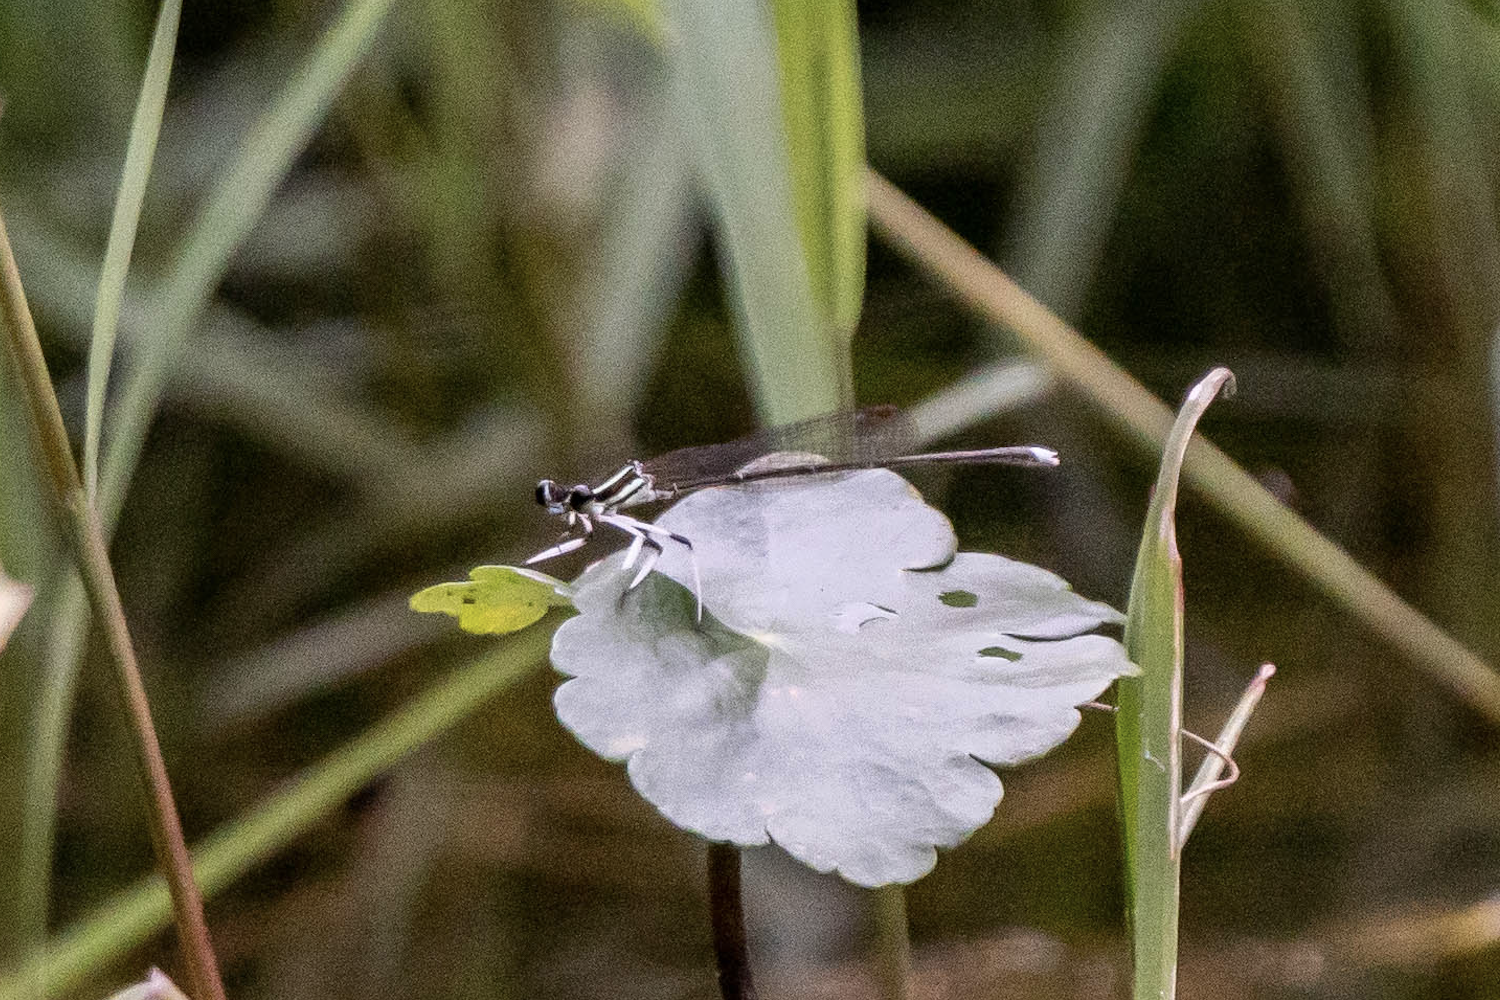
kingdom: Animalia
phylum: Arthropoda
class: Insecta
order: Odonata
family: Platycnemididae
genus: Pseudocopera
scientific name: Pseudocopera ciliata
